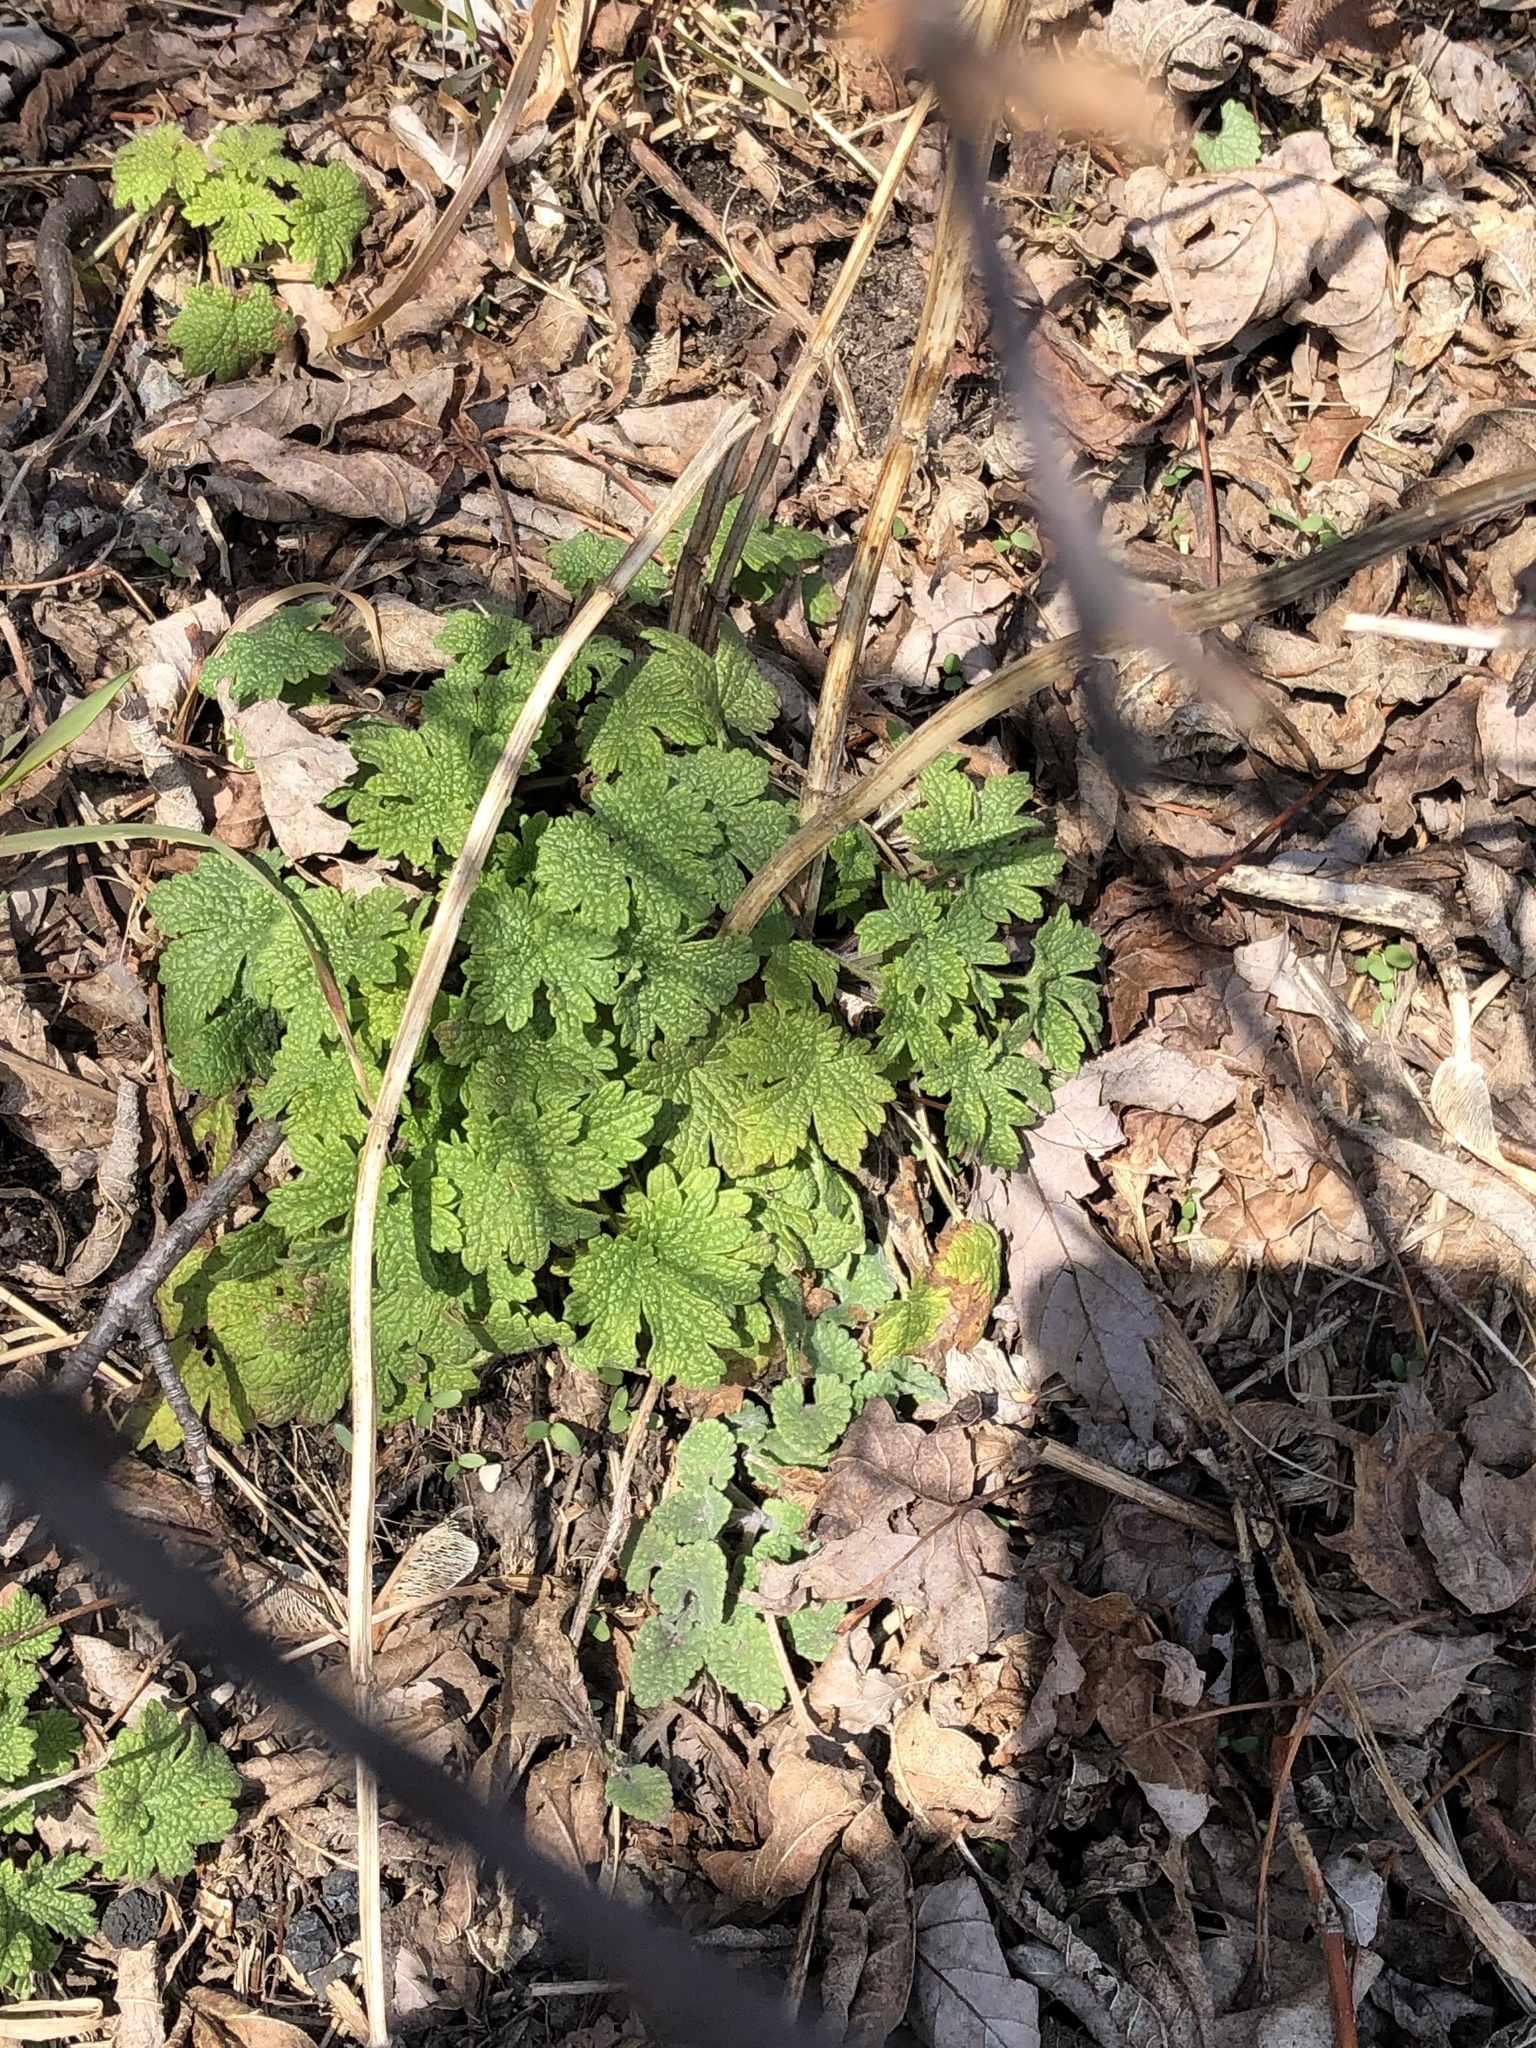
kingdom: Plantae
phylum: Tracheophyta
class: Magnoliopsida
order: Lamiales
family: Lamiaceae
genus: Leonurus
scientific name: Leonurus cardiaca
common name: Motherwort
